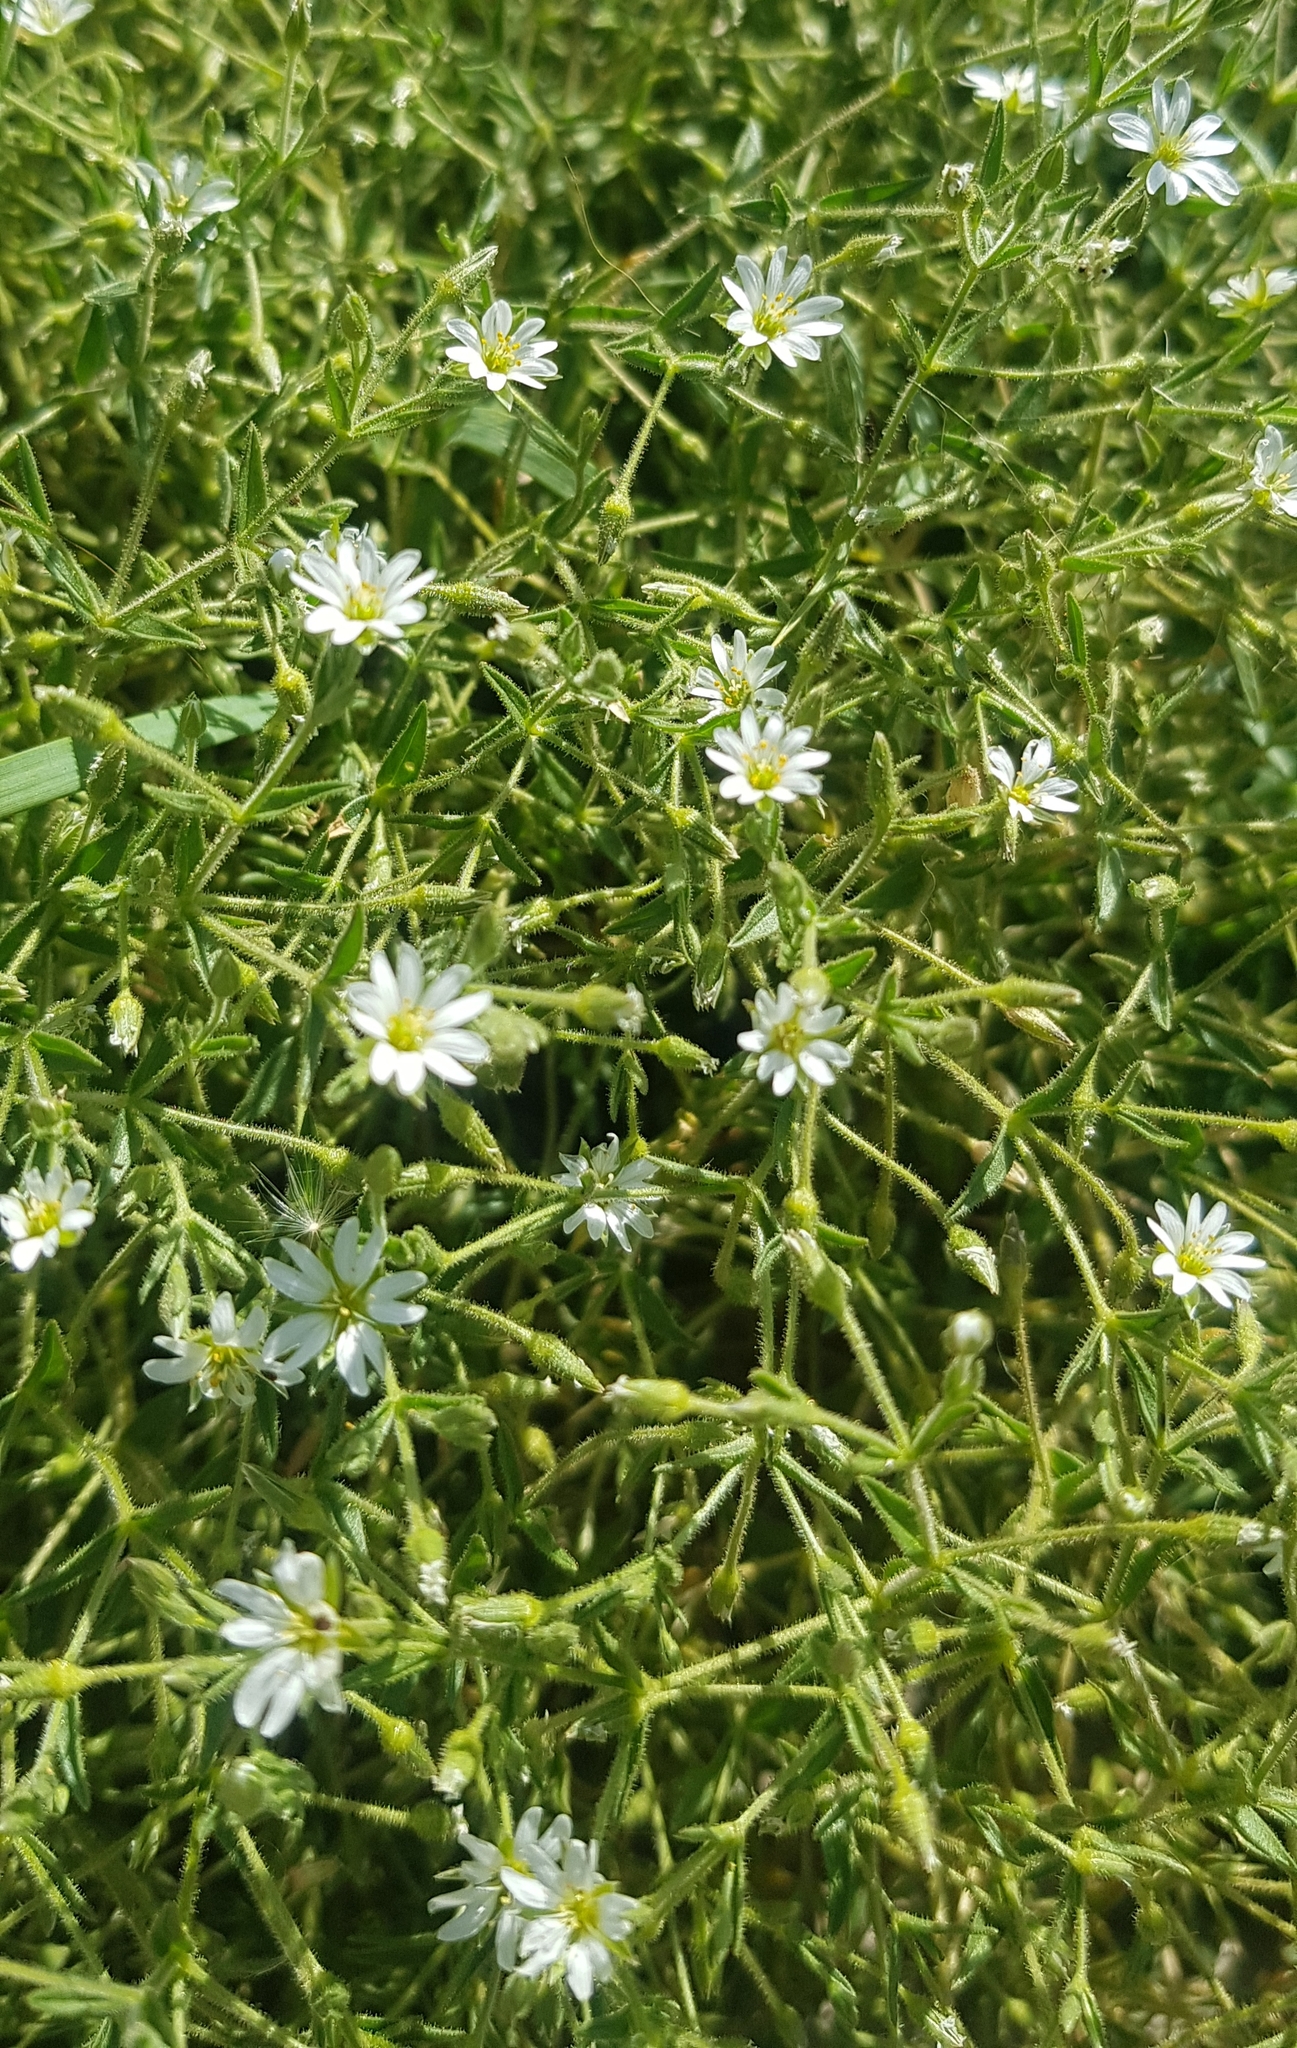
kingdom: Plantae
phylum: Tracheophyta
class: Magnoliopsida
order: Caryophyllales
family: Caryophyllaceae
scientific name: Caryophyllaceae
